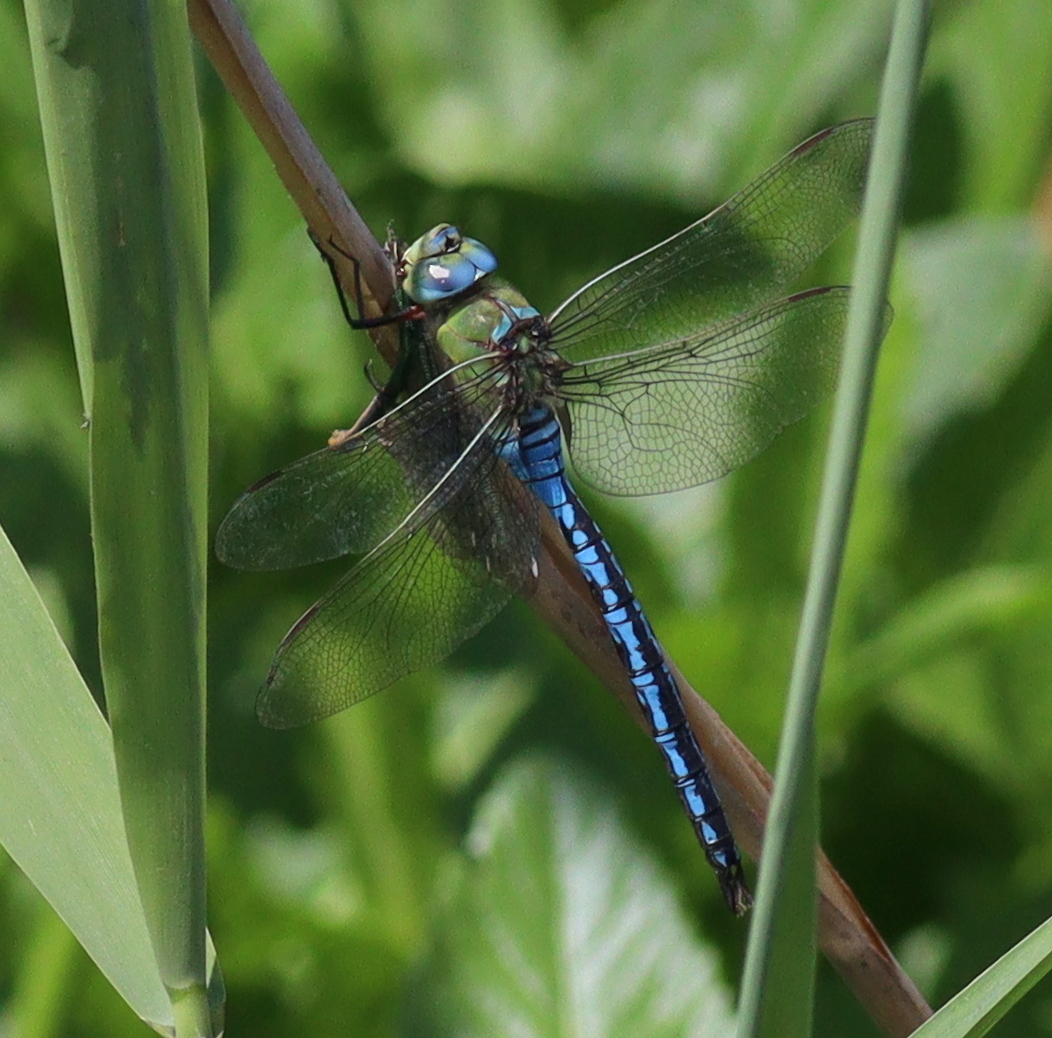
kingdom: Animalia
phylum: Arthropoda
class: Insecta
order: Odonata
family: Aeshnidae
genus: Anax
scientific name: Anax imperator
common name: Emperor dragonfly
